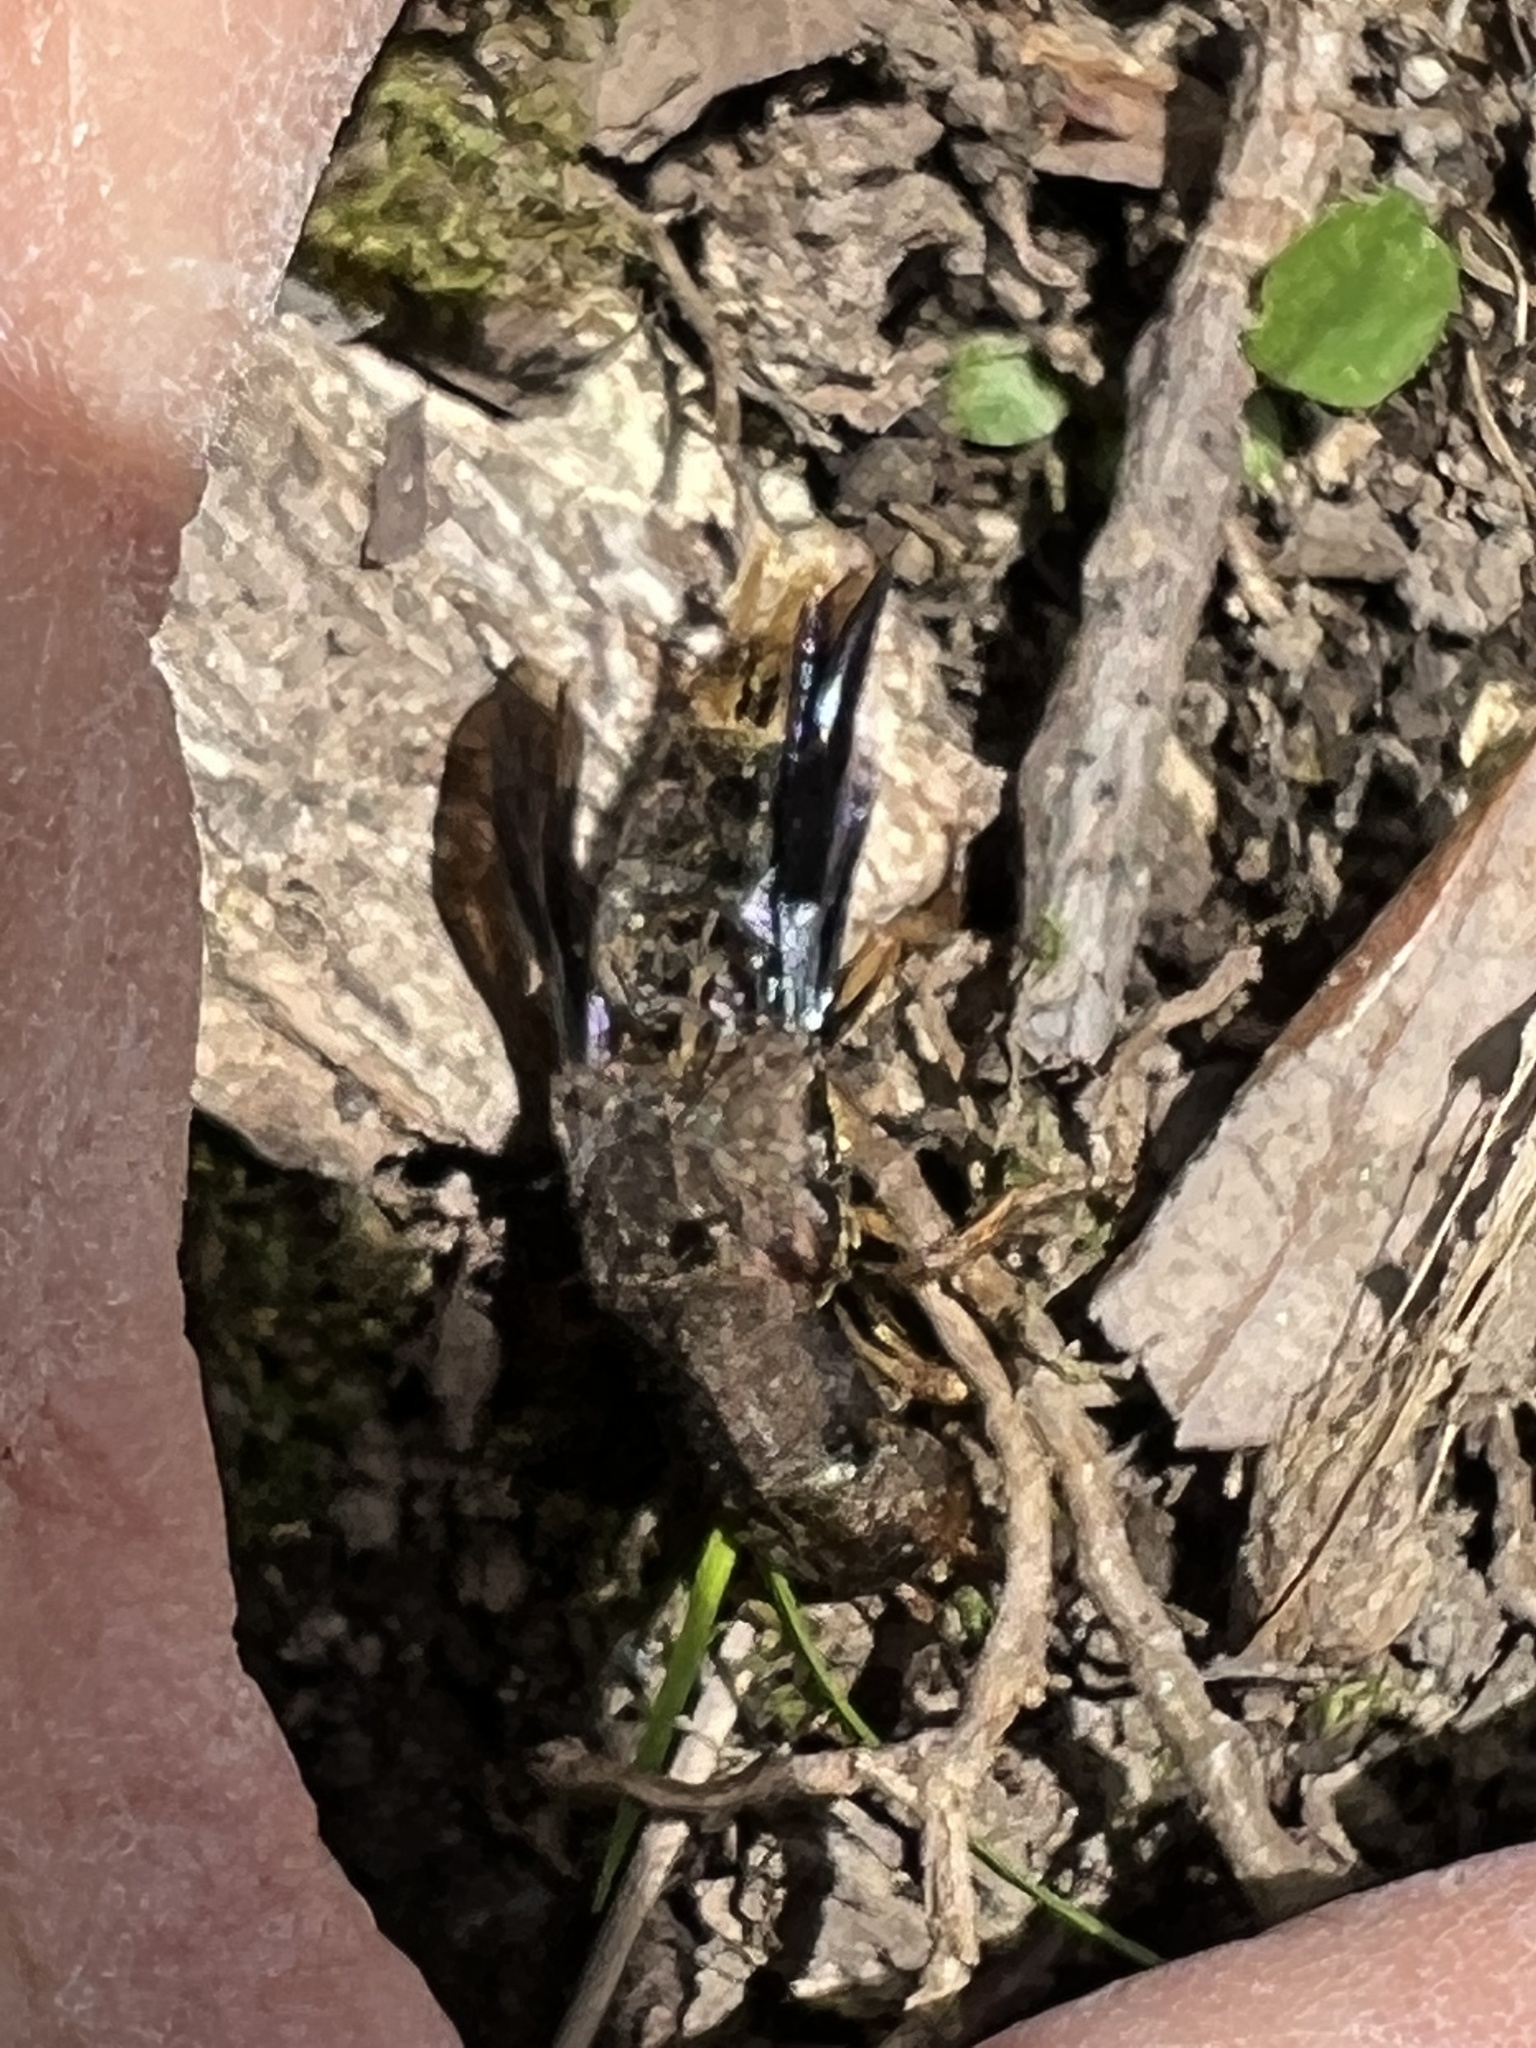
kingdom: Animalia
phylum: Arthropoda
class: Insecta
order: Coleoptera
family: Staphylinidae
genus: Platydracus
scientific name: Platydracus maculosus
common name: Brown rove beetle
